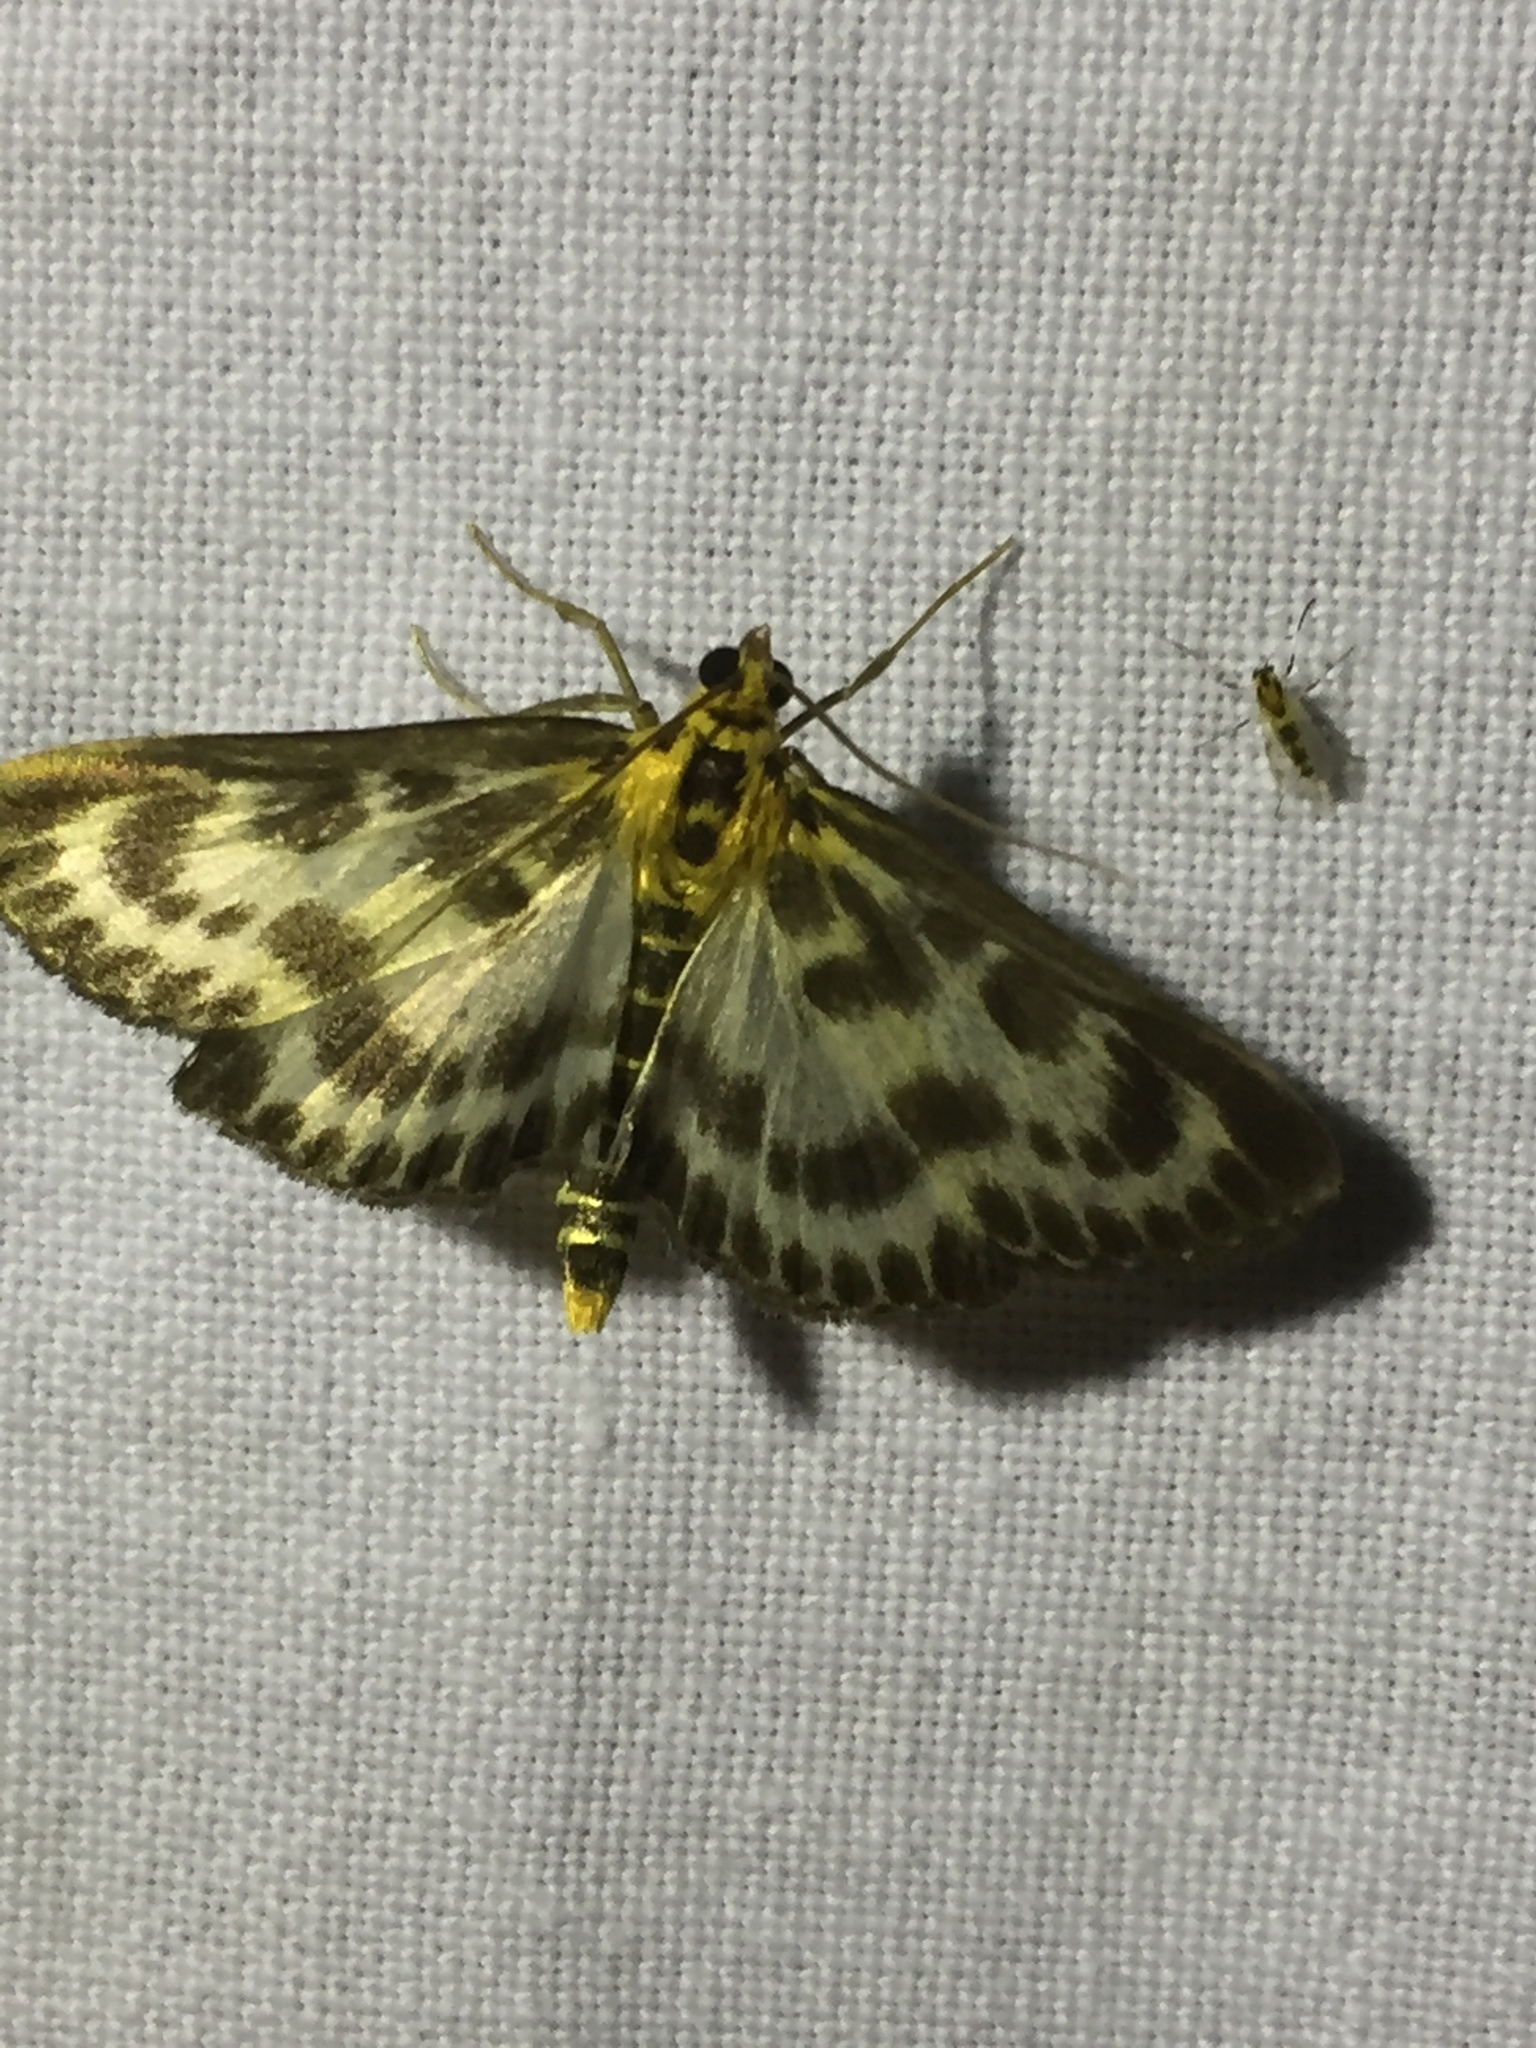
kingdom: Animalia
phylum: Arthropoda
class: Insecta
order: Lepidoptera
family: Crambidae
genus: Anania
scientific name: Anania hortulata
